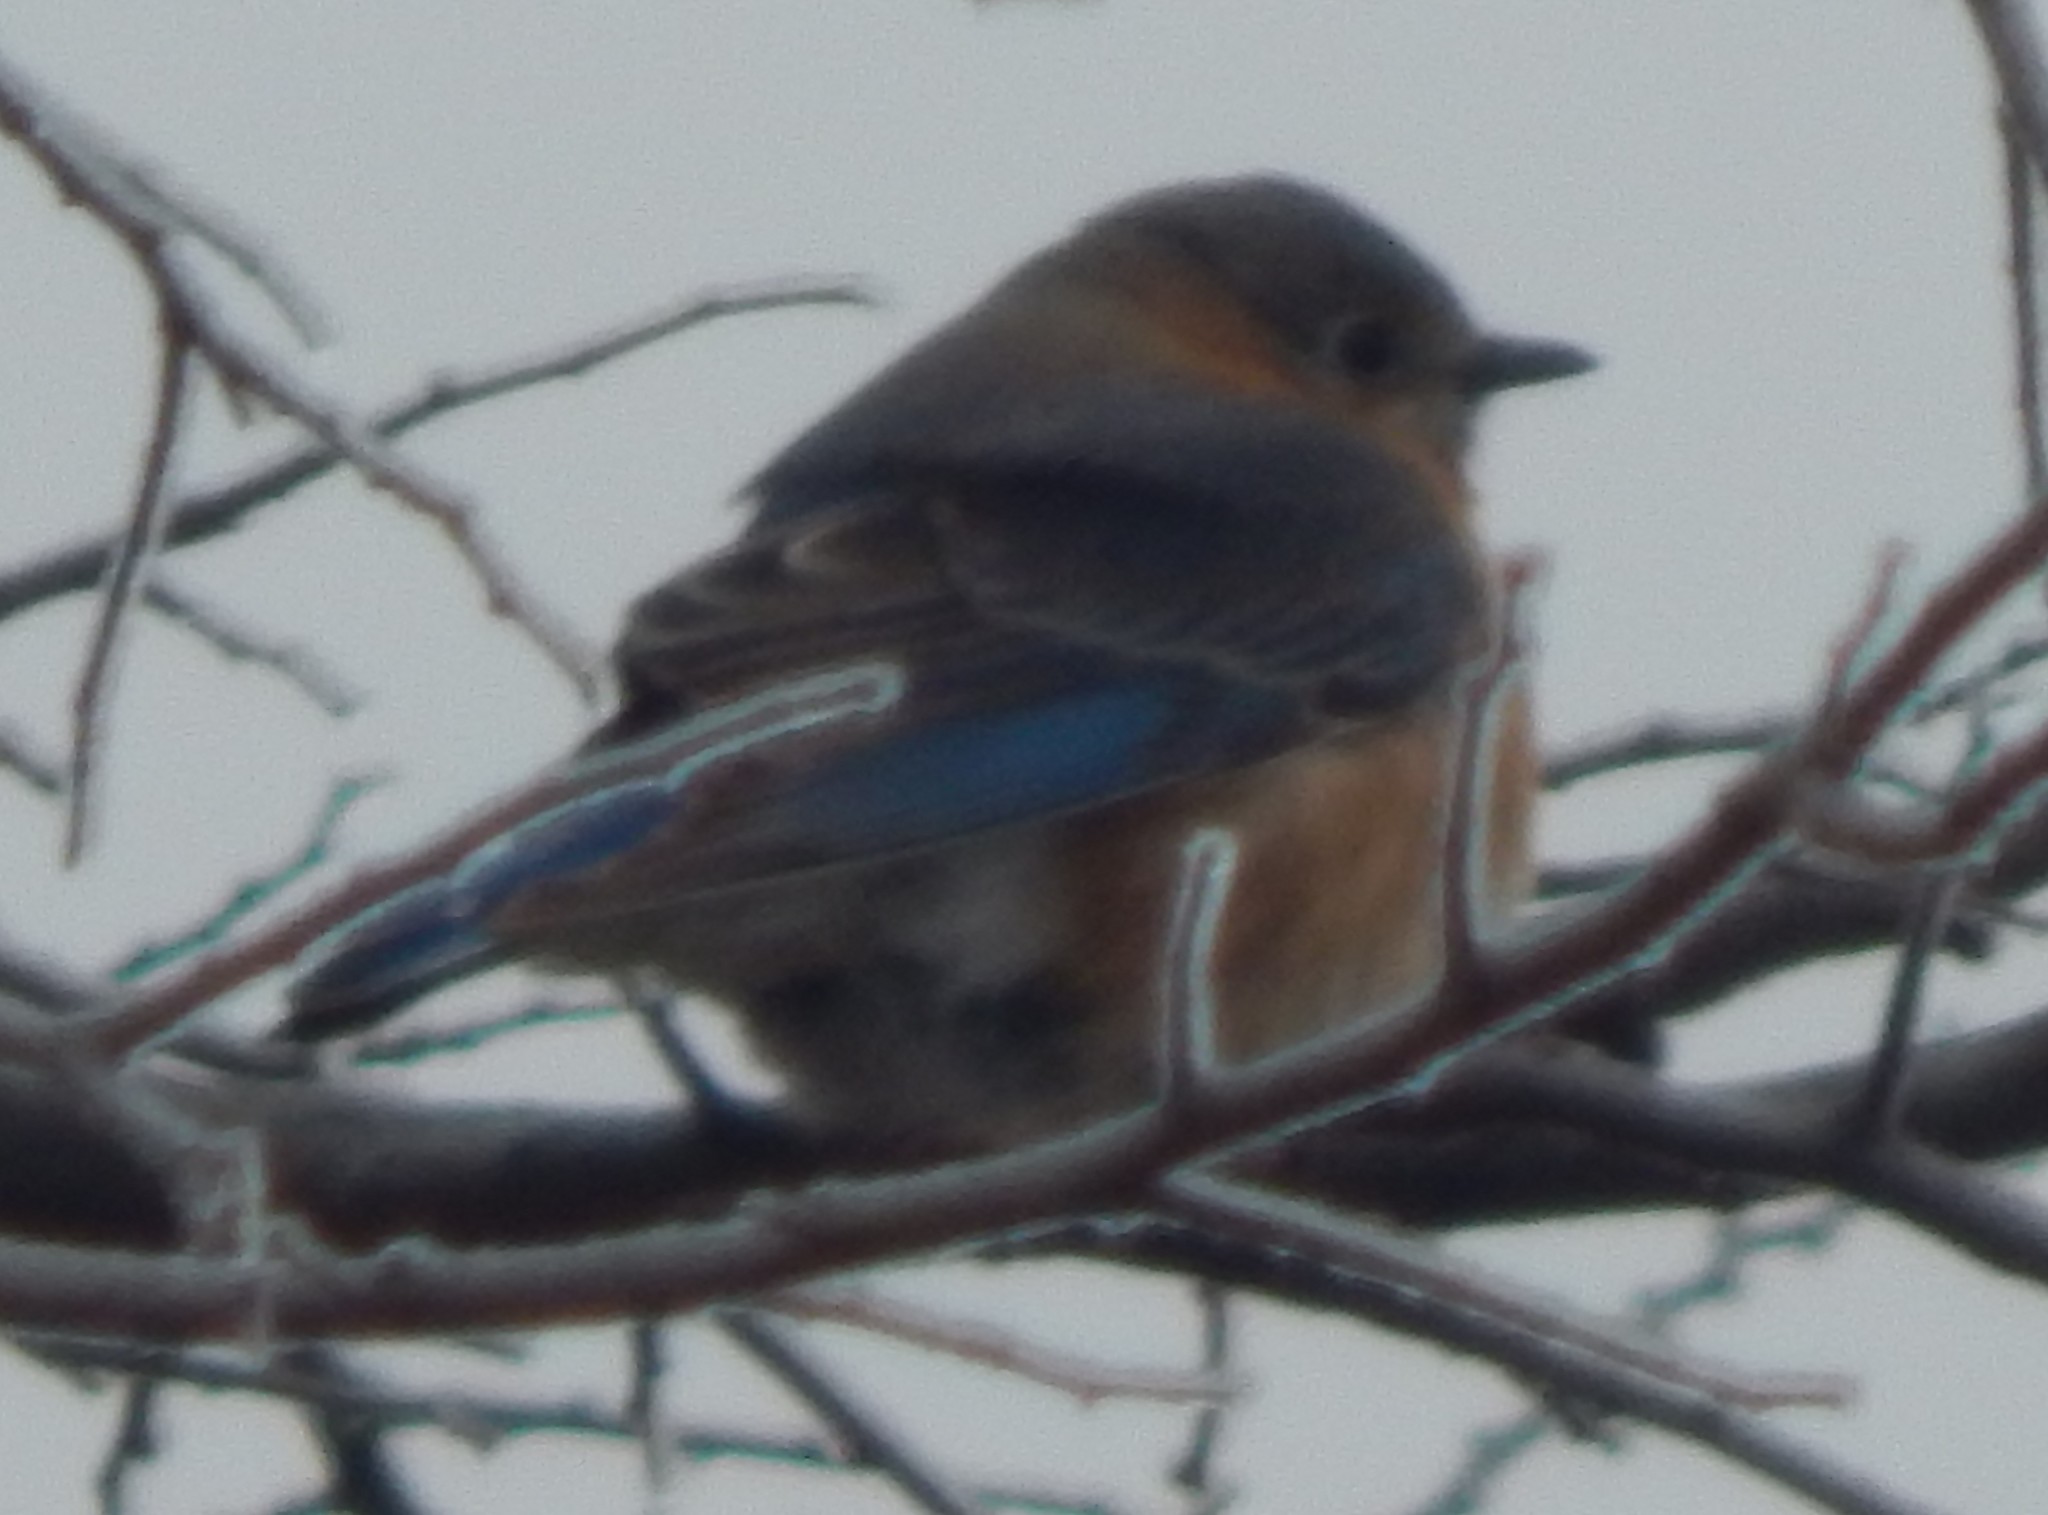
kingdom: Animalia
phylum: Chordata
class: Aves
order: Passeriformes
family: Turdidae
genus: Sialia
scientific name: Sialia sialis
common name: Eastern bluebird
